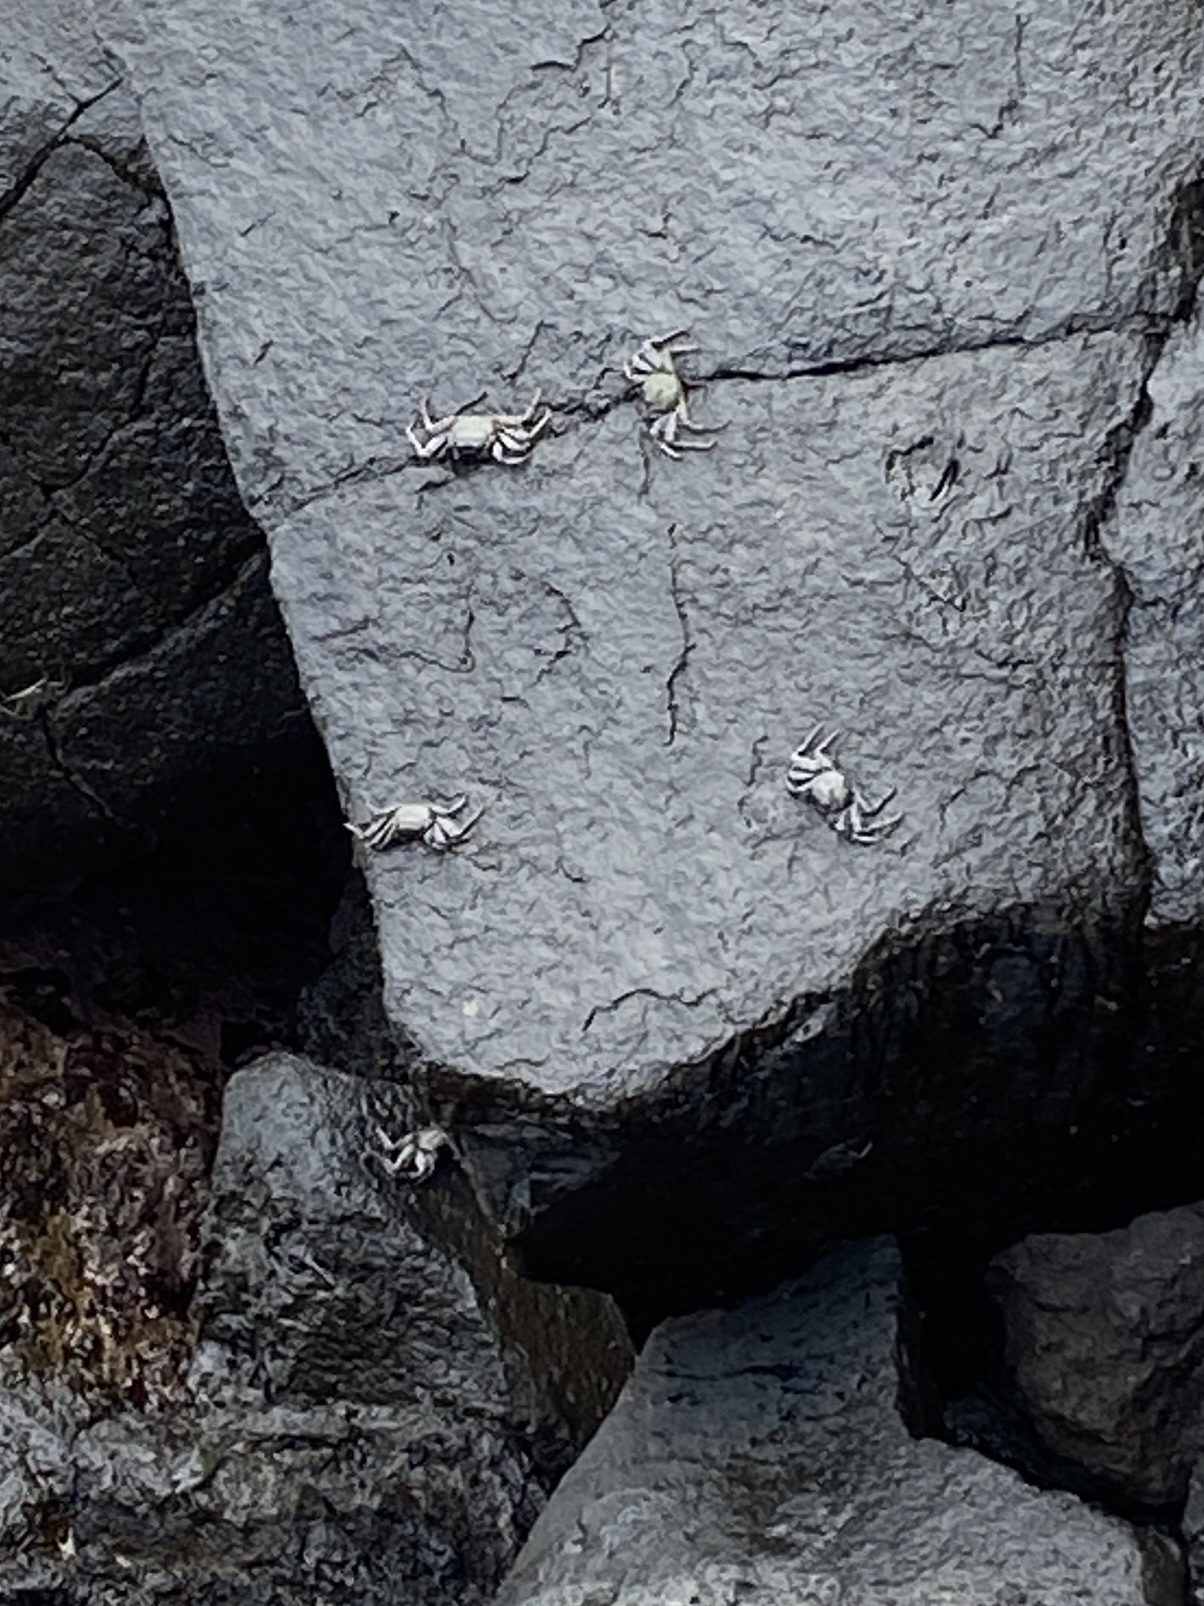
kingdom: Animalia
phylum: Arthropoda
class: Malacostraca
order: Decapoda
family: Grapsidae
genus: Grapsus
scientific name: Grapsus adscensionis
